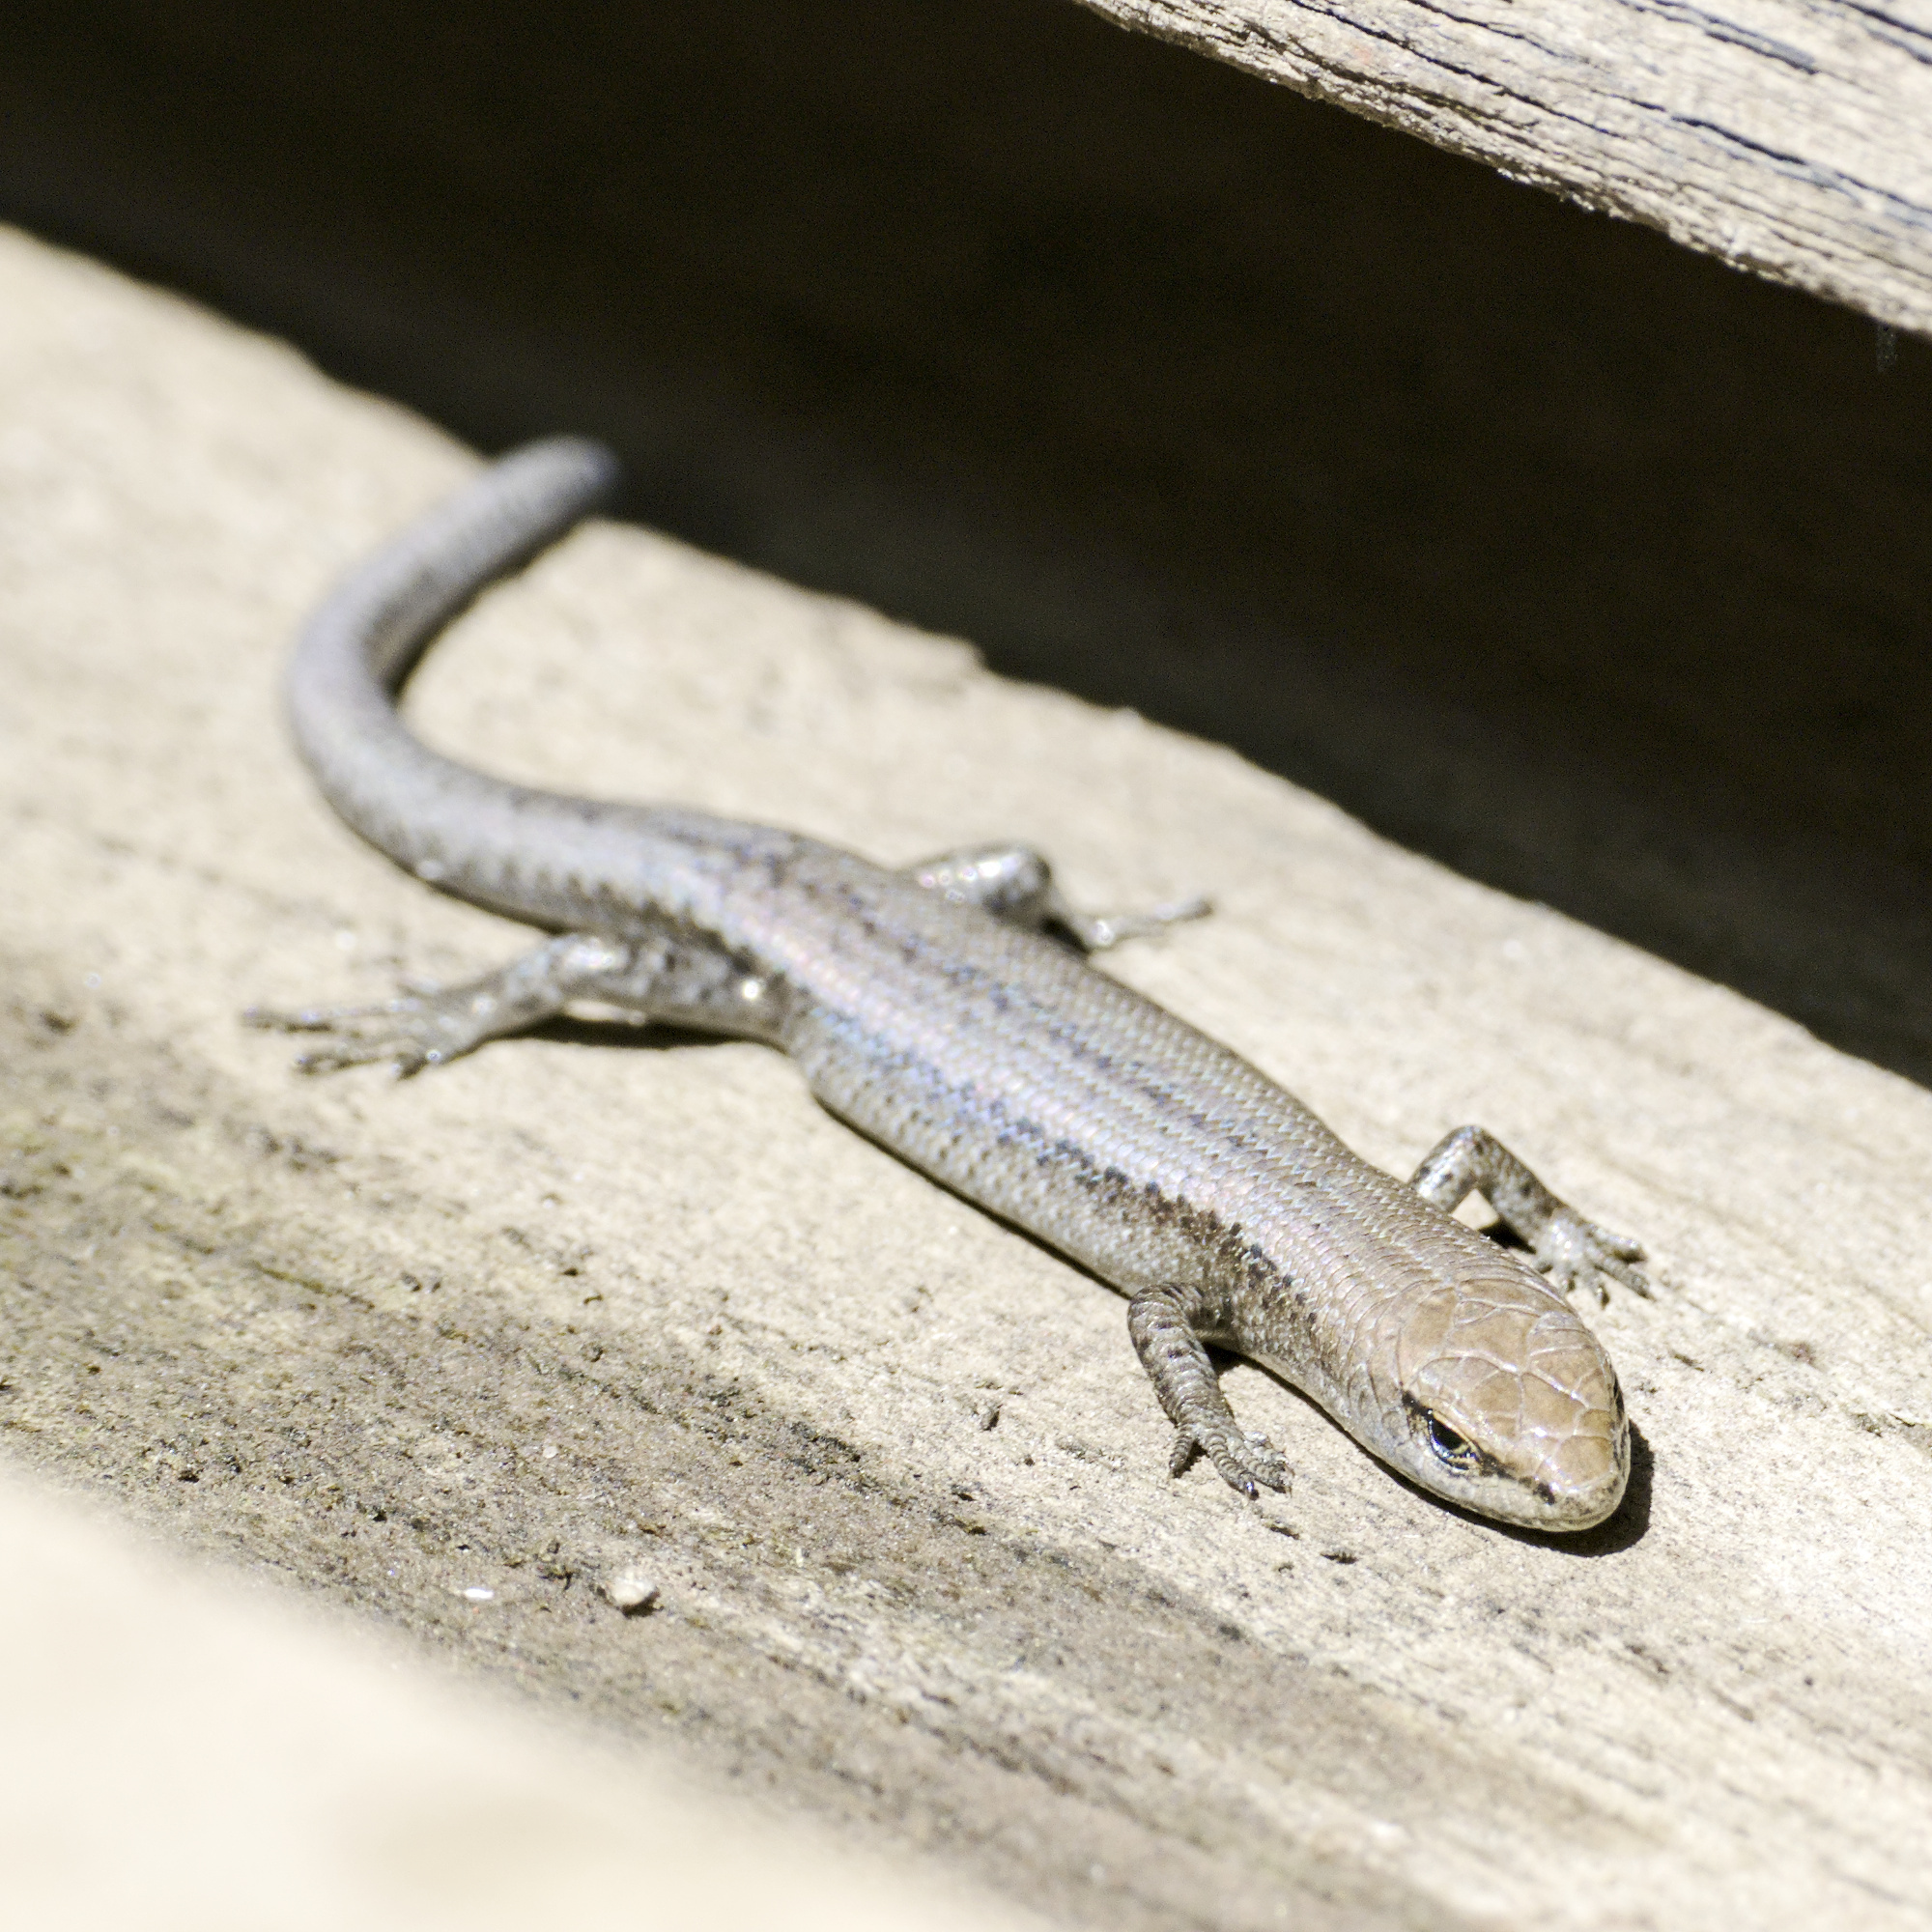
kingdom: Animalia
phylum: Chordata
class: Squamata
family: Scincidae
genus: Lampropholis
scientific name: Lampropholis guichenoti
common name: Garden skink
